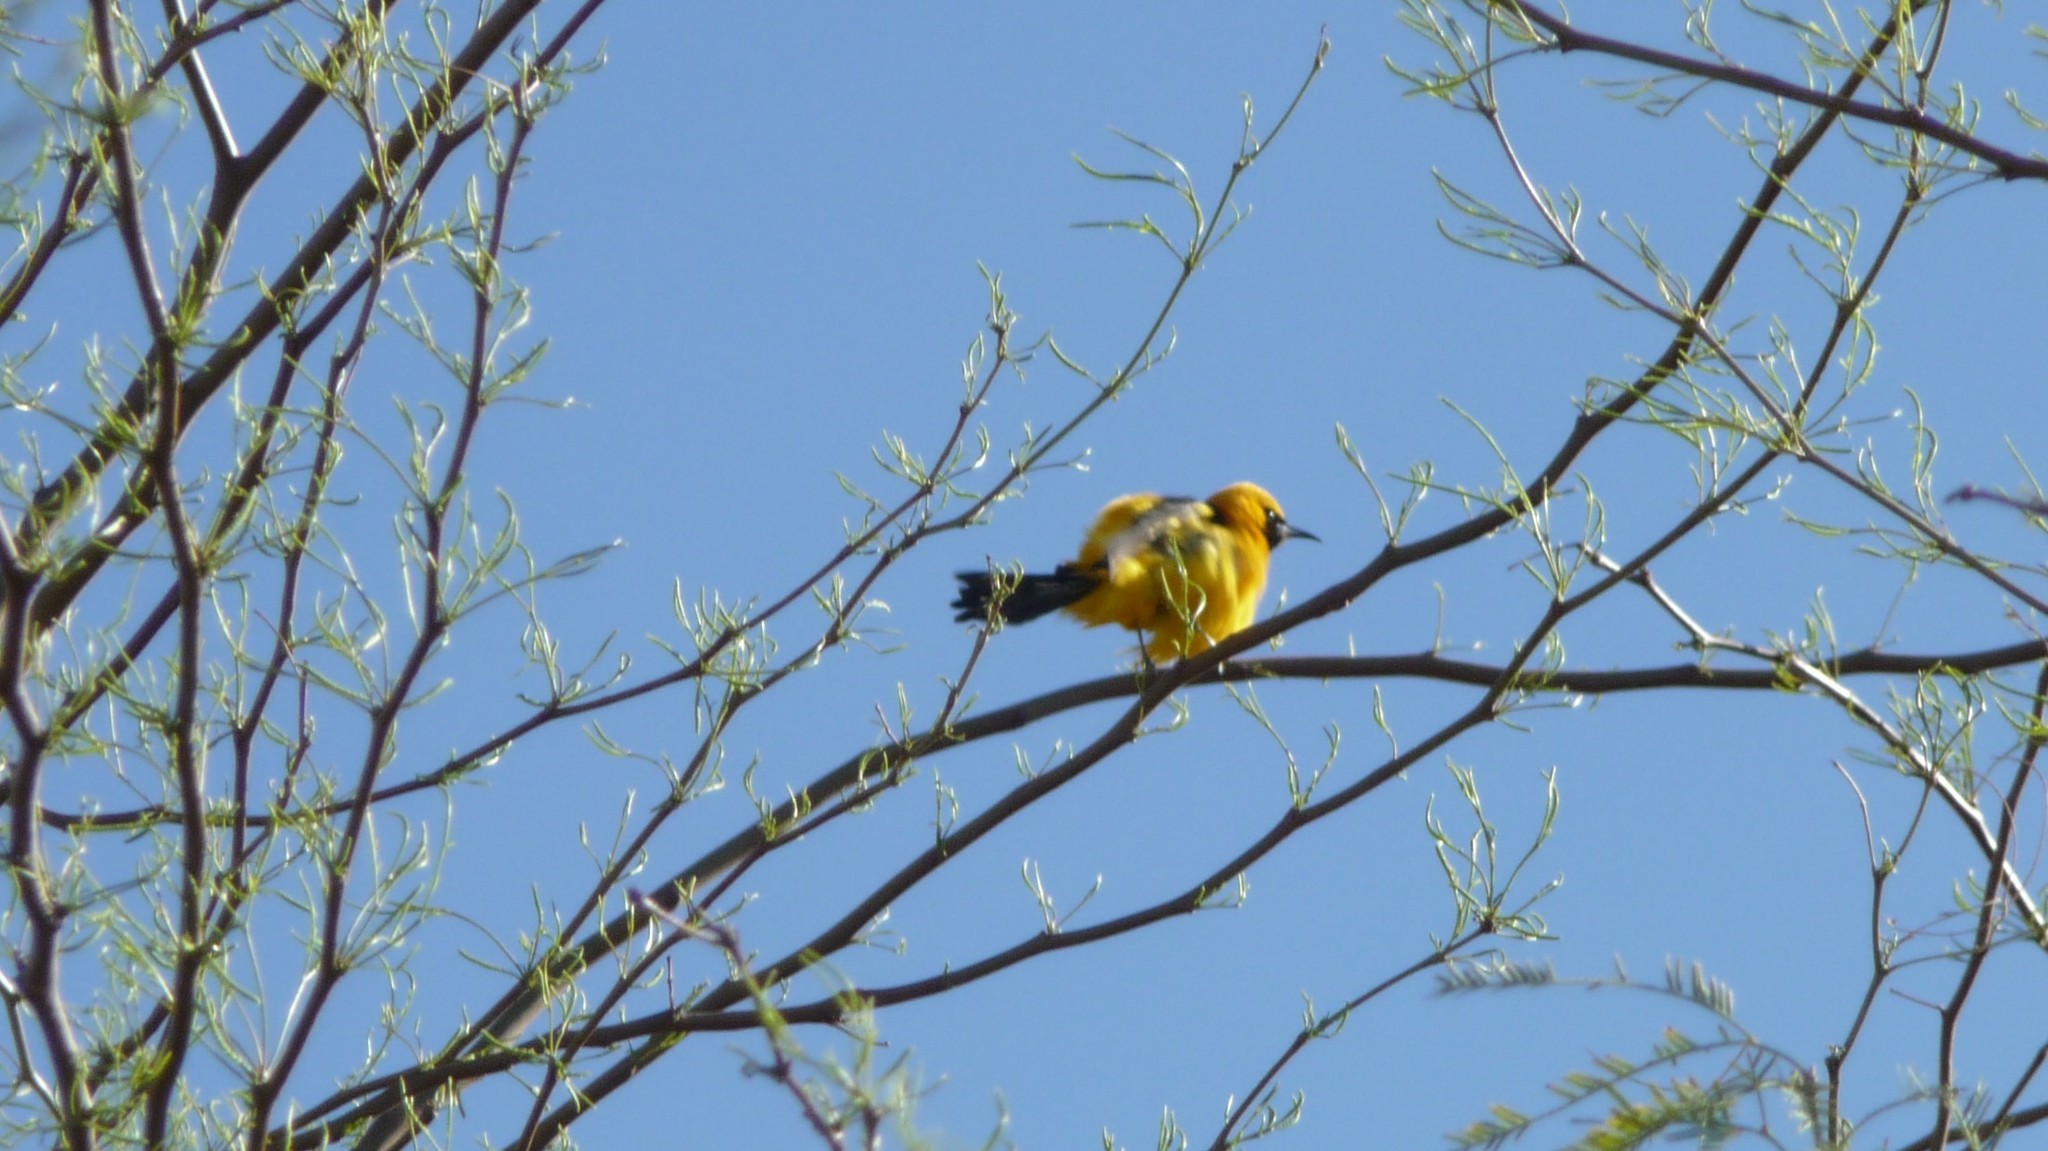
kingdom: Animalia
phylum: Chordata
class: Aves
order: Passeriformes
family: Icteridae
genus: Icterus
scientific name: Icterus cucullatus
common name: Hooded oriole
